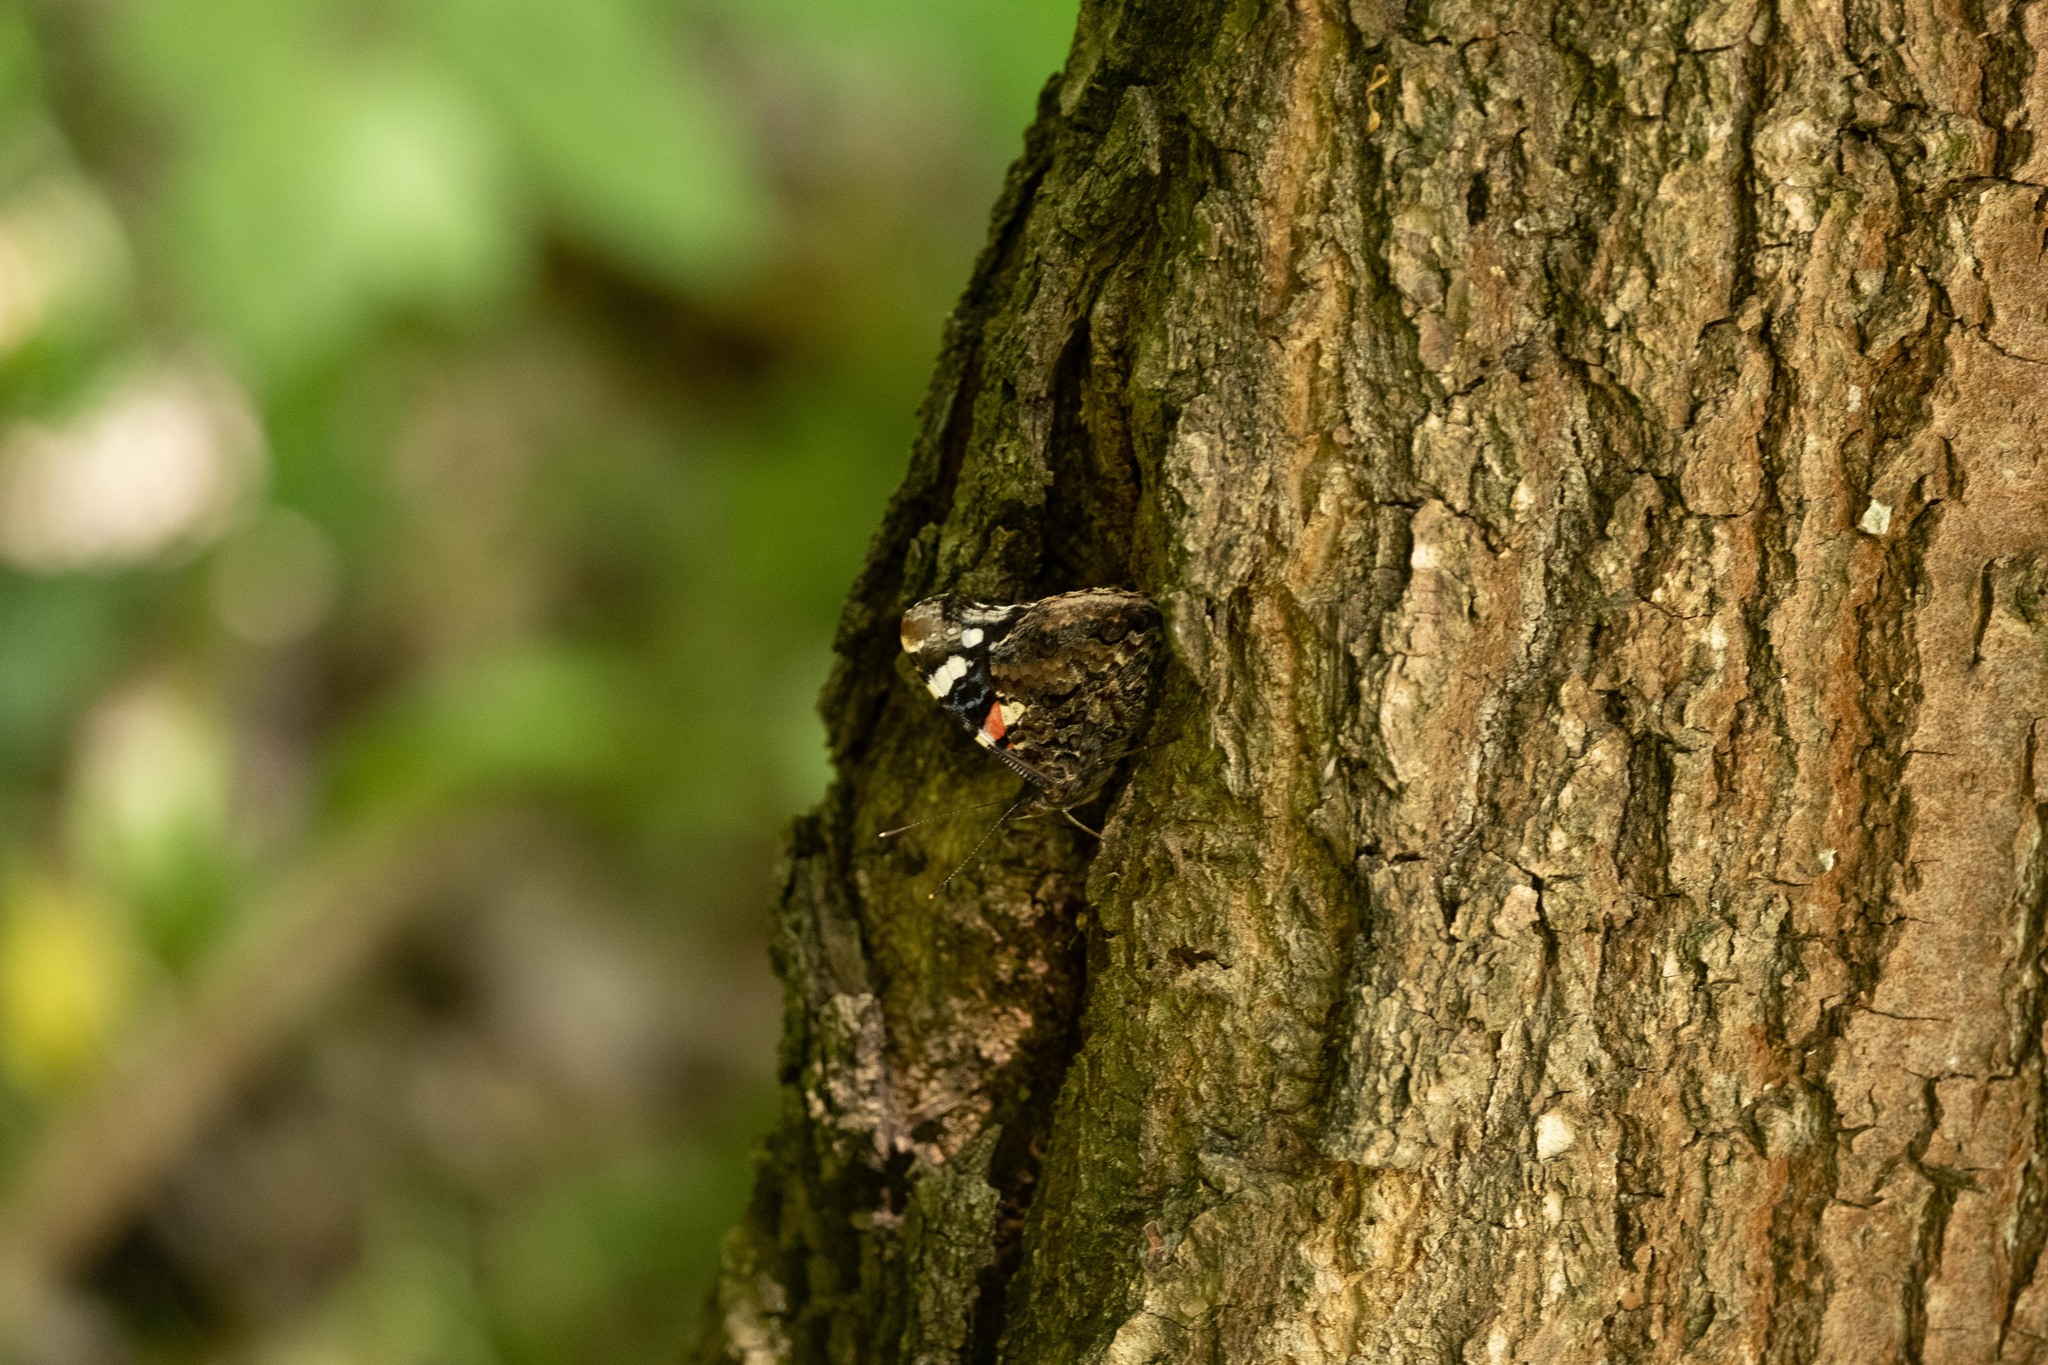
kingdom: Animalia
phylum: Arthropoda
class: Insecta
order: Lepidoptera
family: Nymphalidae
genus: Vanessa
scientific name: Vanessa atalanta
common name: Red admiral
